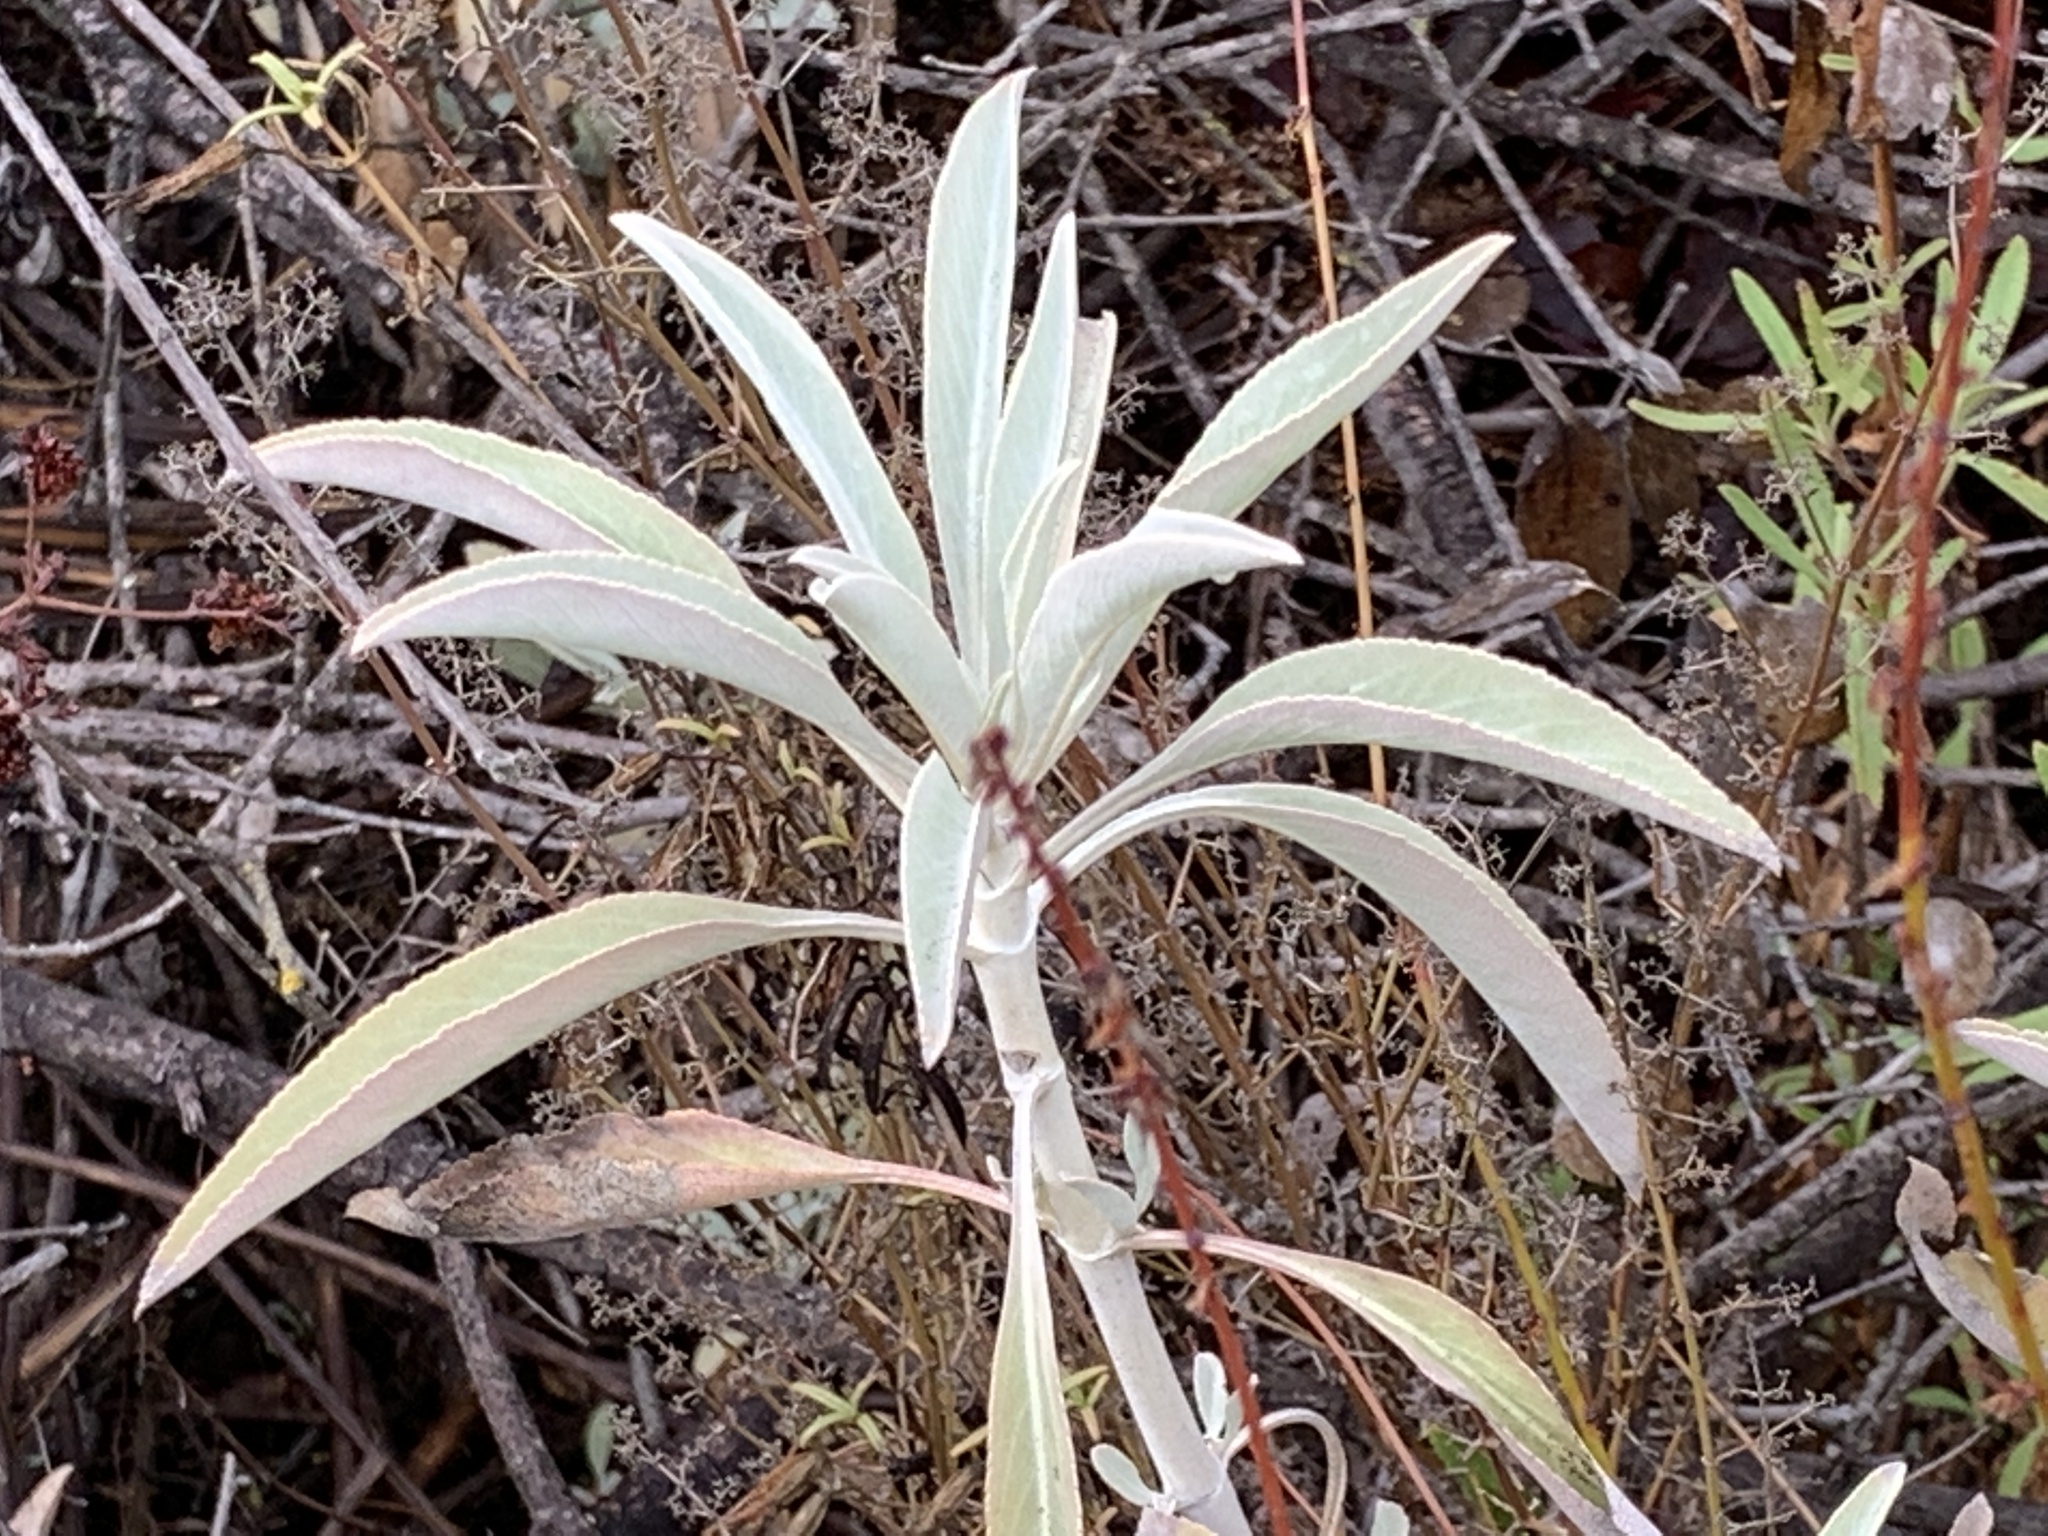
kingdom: Plantae
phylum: Tracheophyta
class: Magnoliopsida
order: Lamiales
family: Lamiaceae
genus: Salvia
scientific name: Salvia apiana
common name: White sage
